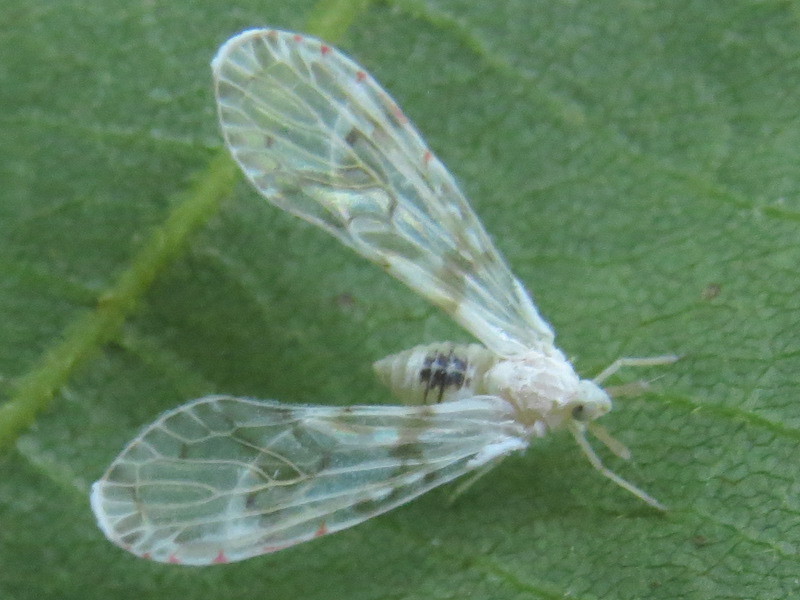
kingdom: Animalia
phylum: Arthropoda
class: Insecta
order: Hemiptera
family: Derbidae
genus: Anotia
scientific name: Anotia robertsonii
